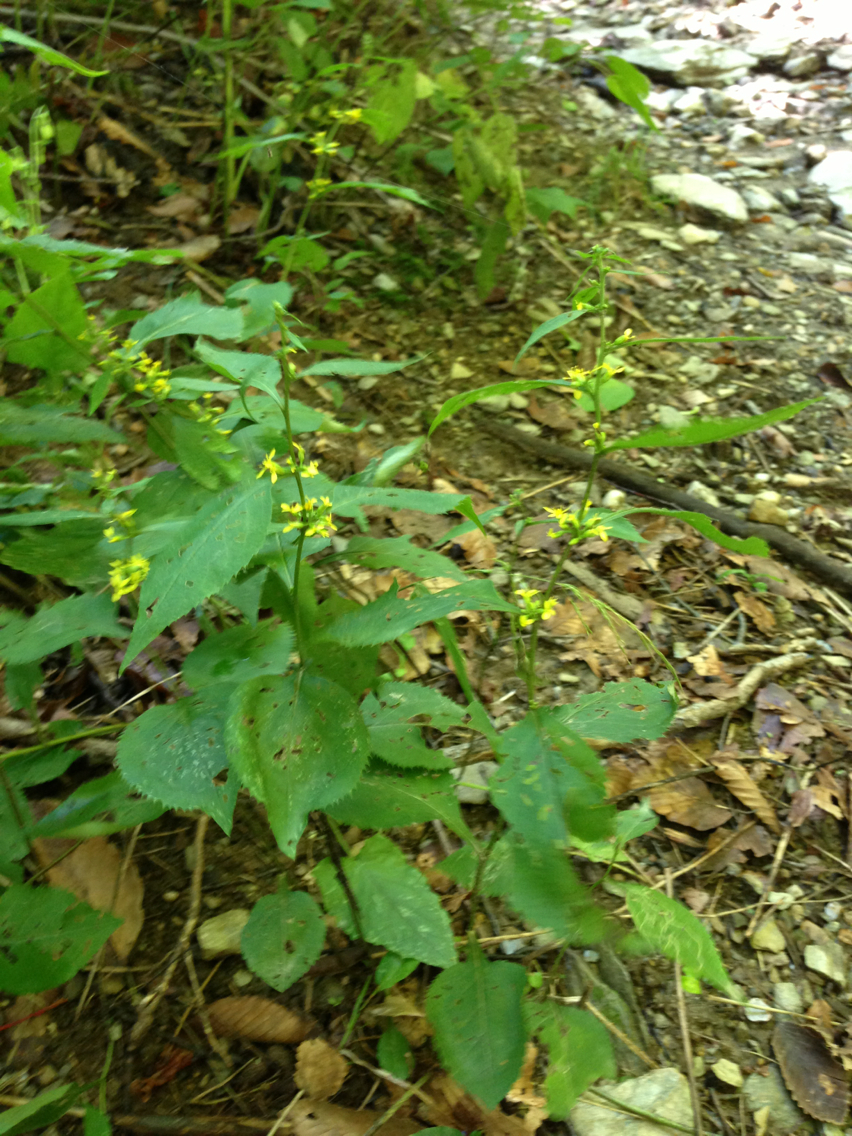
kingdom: Plantae
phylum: Tracheophyta
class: Magnoliopsida
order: Asterales
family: Asteraceae
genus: Solidago
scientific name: Solidago flexicaulis
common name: Zig-zag goldenrod
